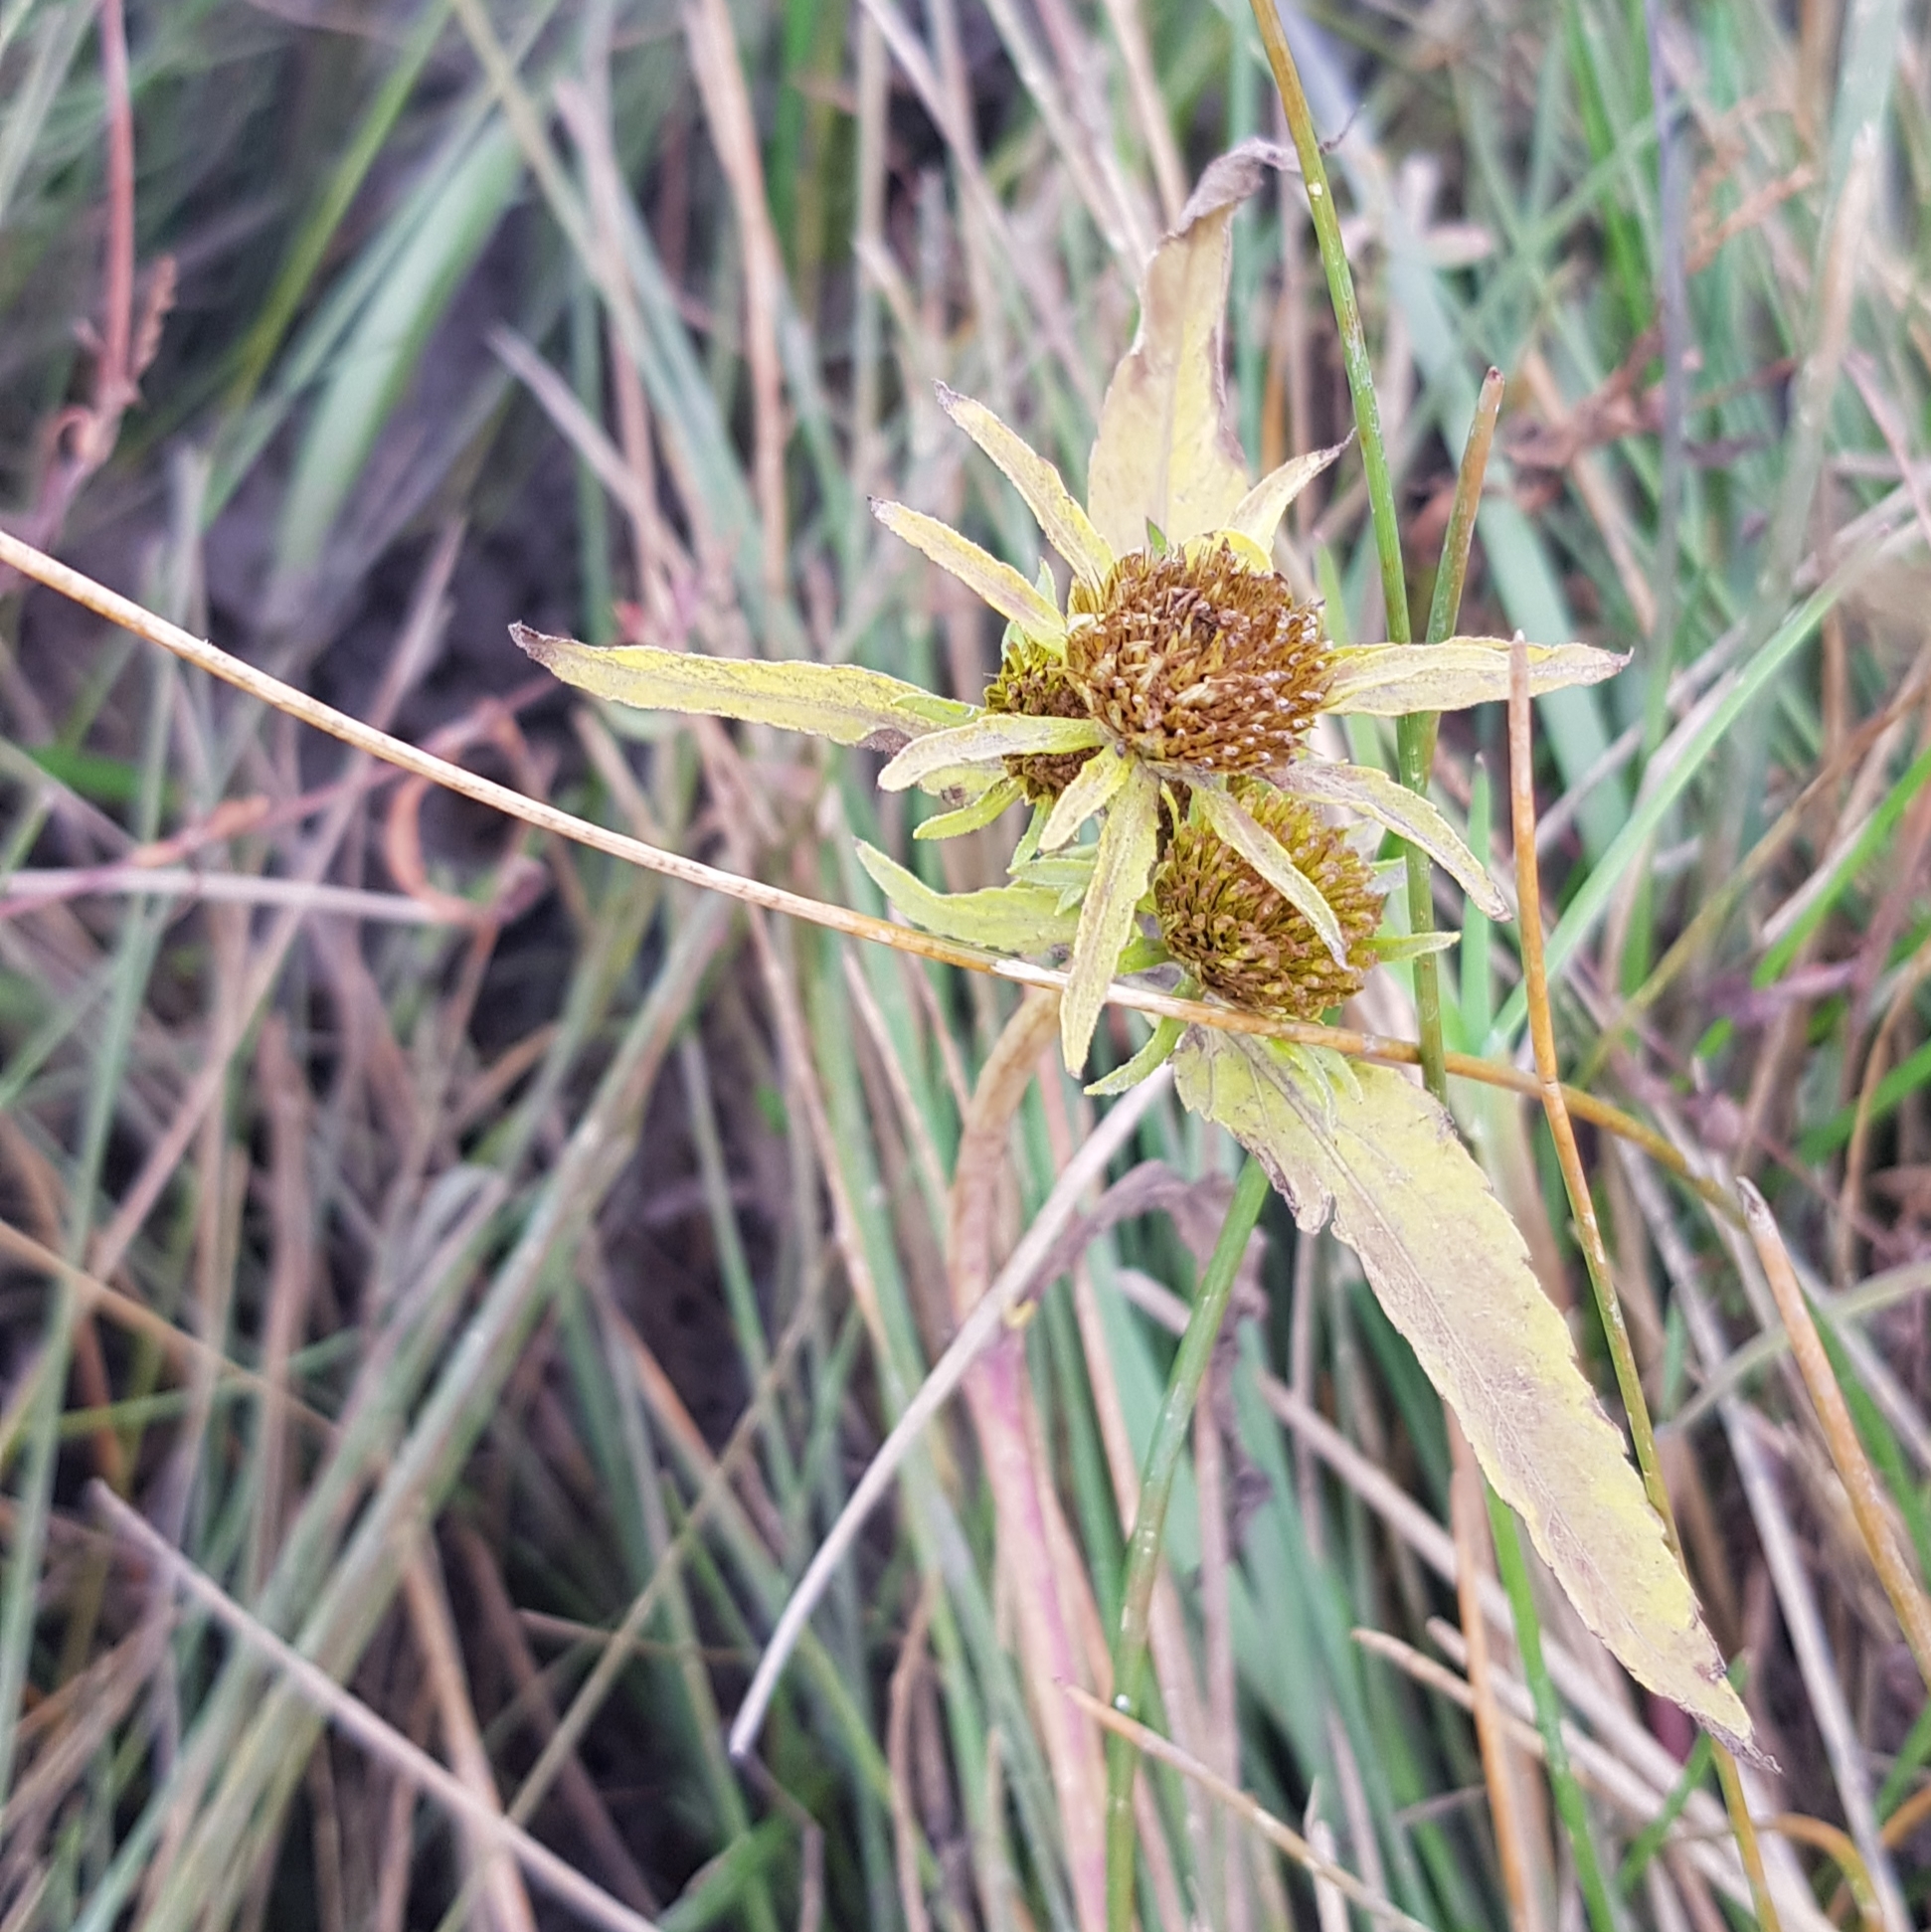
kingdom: Plantae
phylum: Tracheophyta
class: Magnoliopsida
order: Asterales
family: Asteraceae
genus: Bidens
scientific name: Bidens tripartita
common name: Trifid bur-marigold
